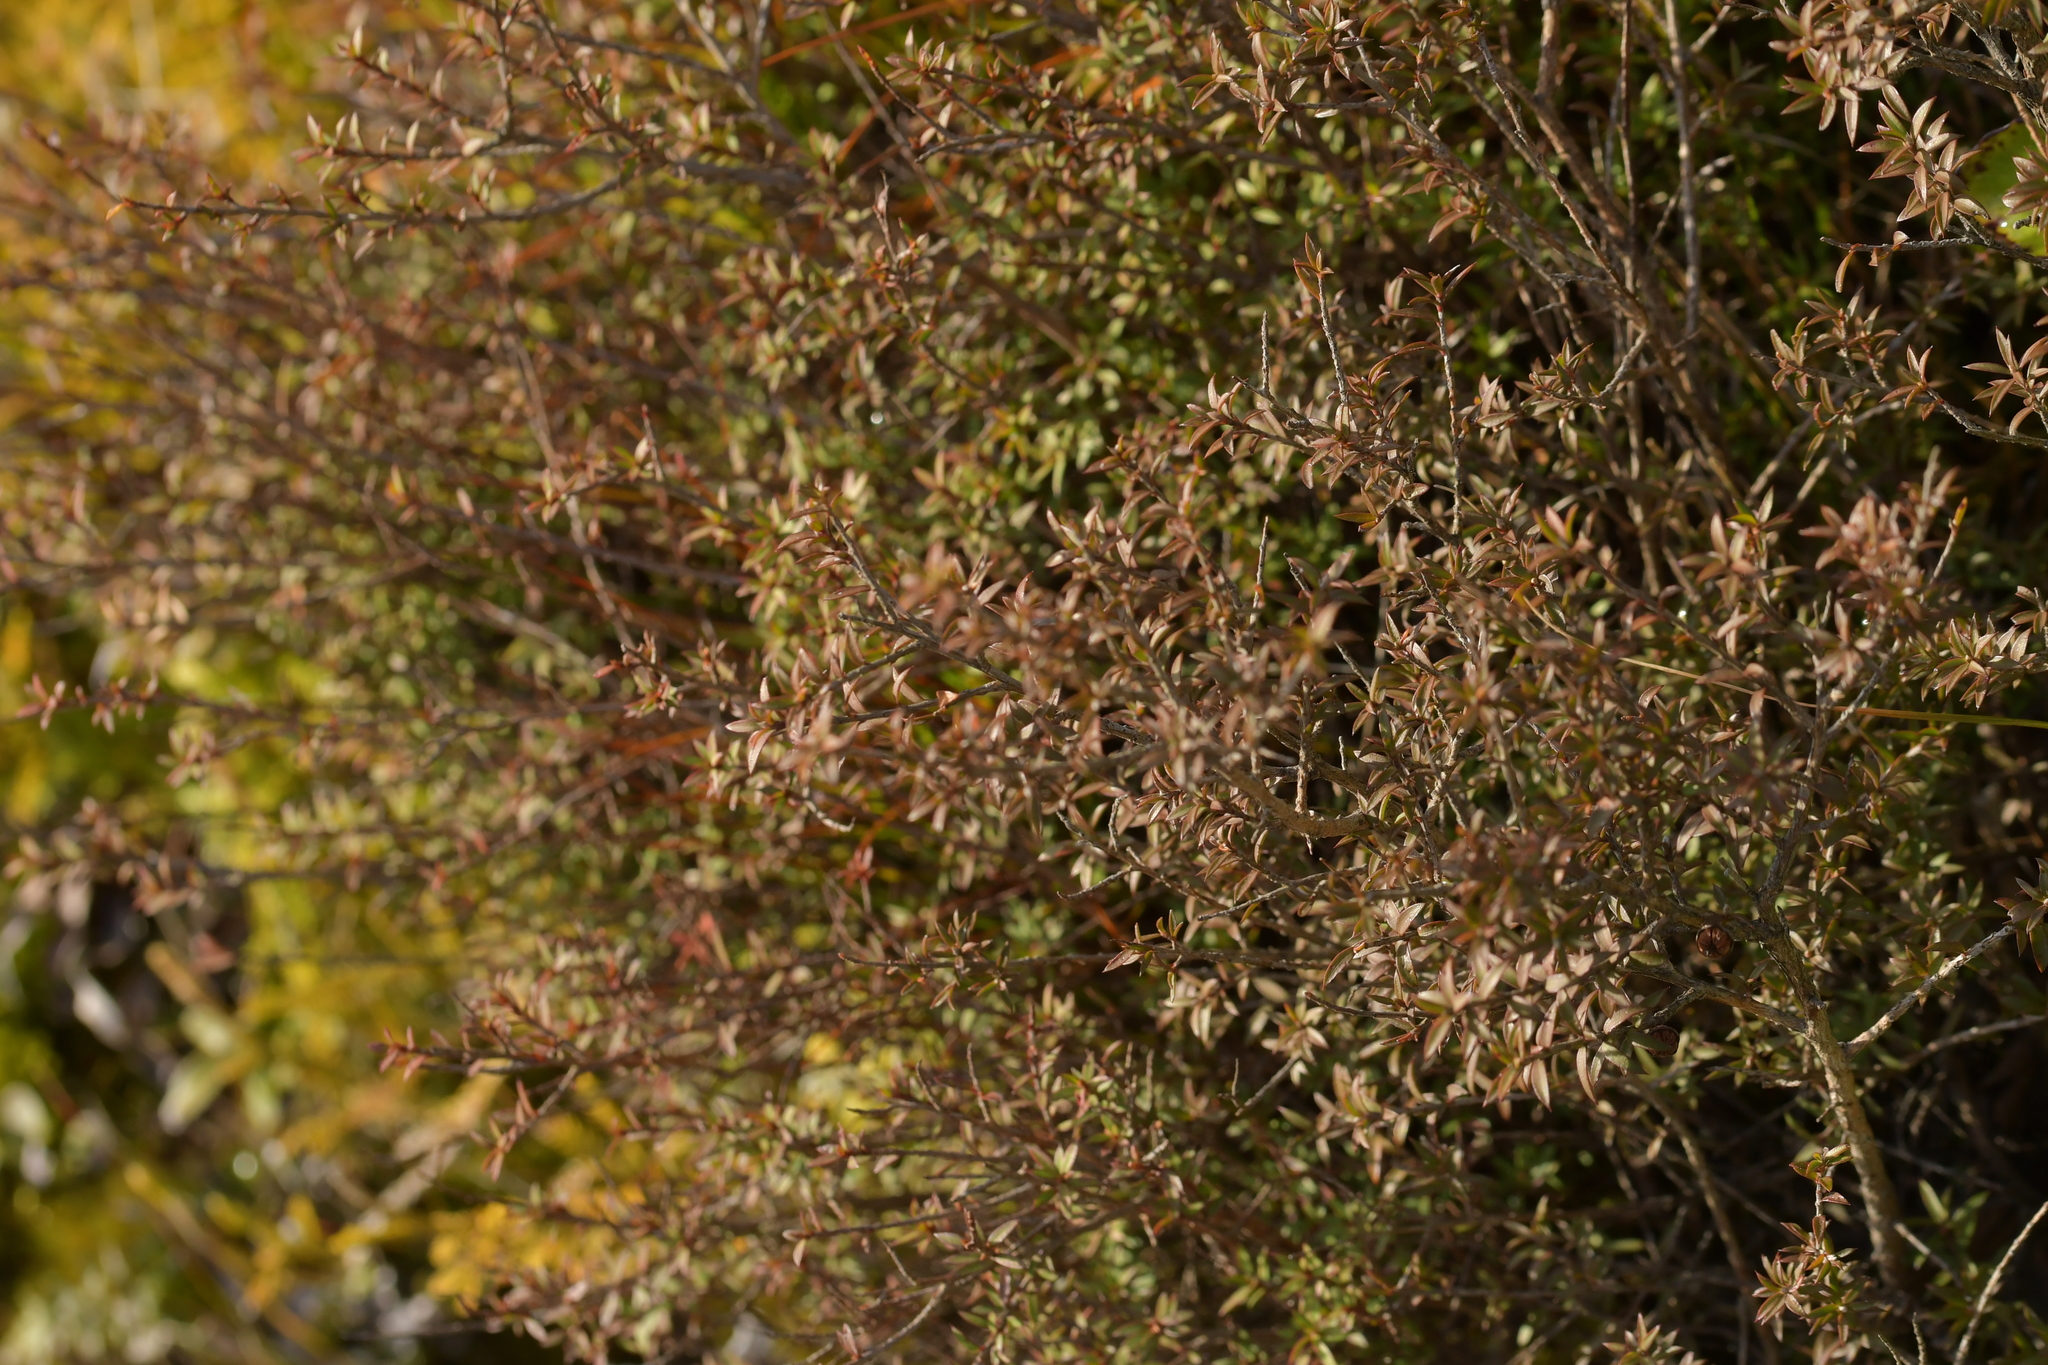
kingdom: Plantae
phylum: Tracheophyta
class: Magnoliopsida
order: Myrtales
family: Myrtaceae
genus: Leptospermum
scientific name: Leptospermum scoparium
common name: Broom tea-tree
